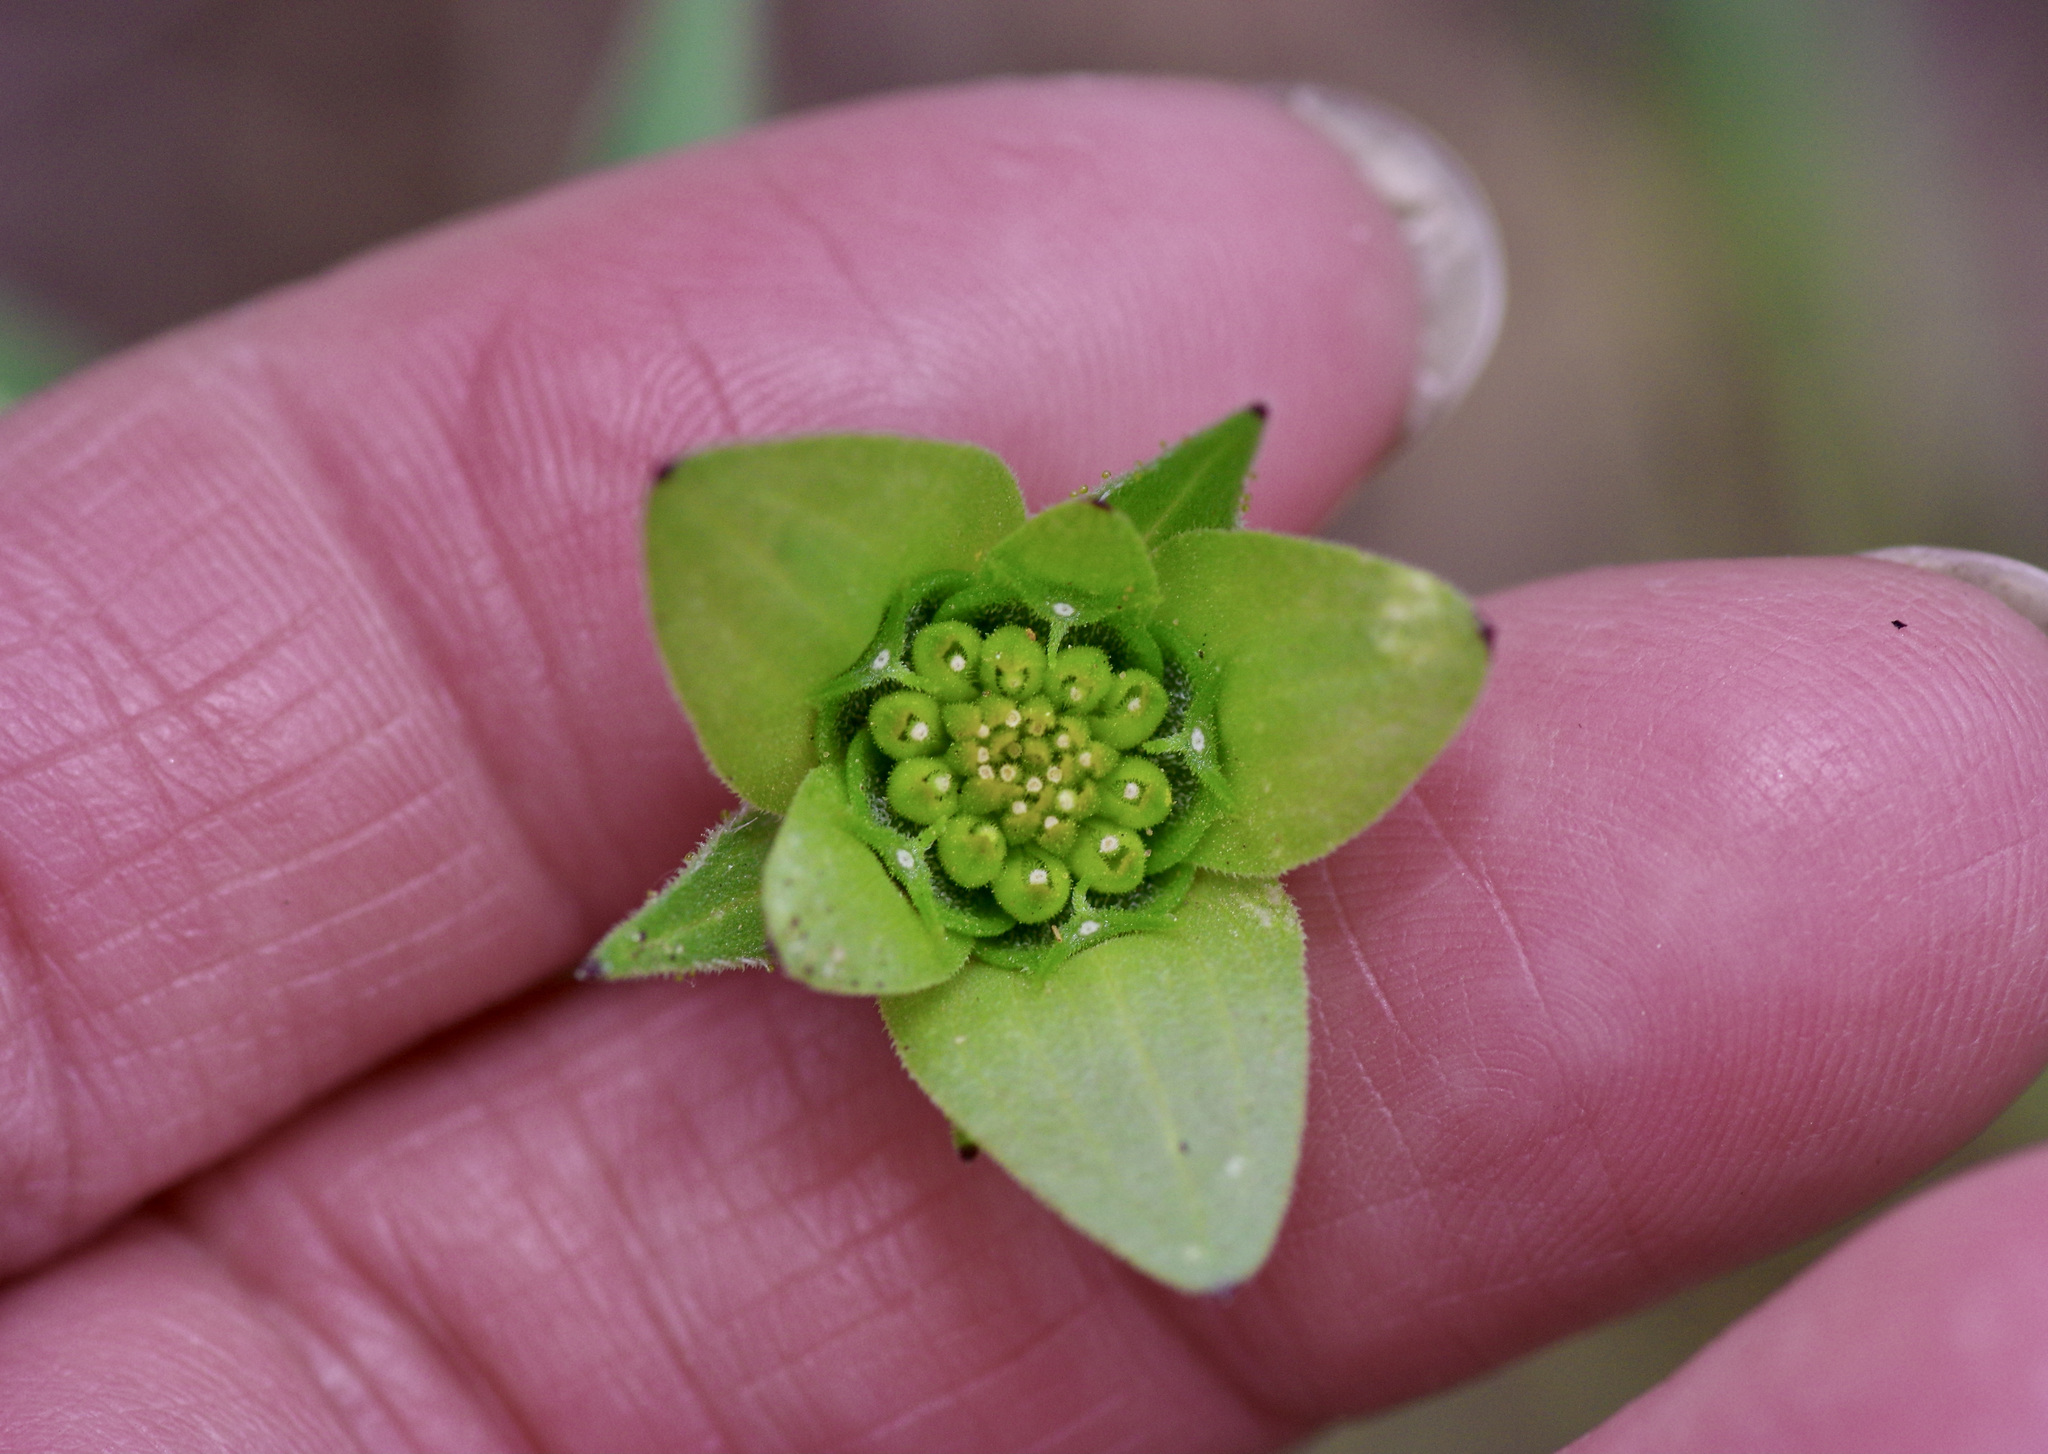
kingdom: Plantae
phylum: Tracheophyta
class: Magnoliopsida
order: Asterales
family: Asteraceae
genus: Lindheimera
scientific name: Lindheimera texana
